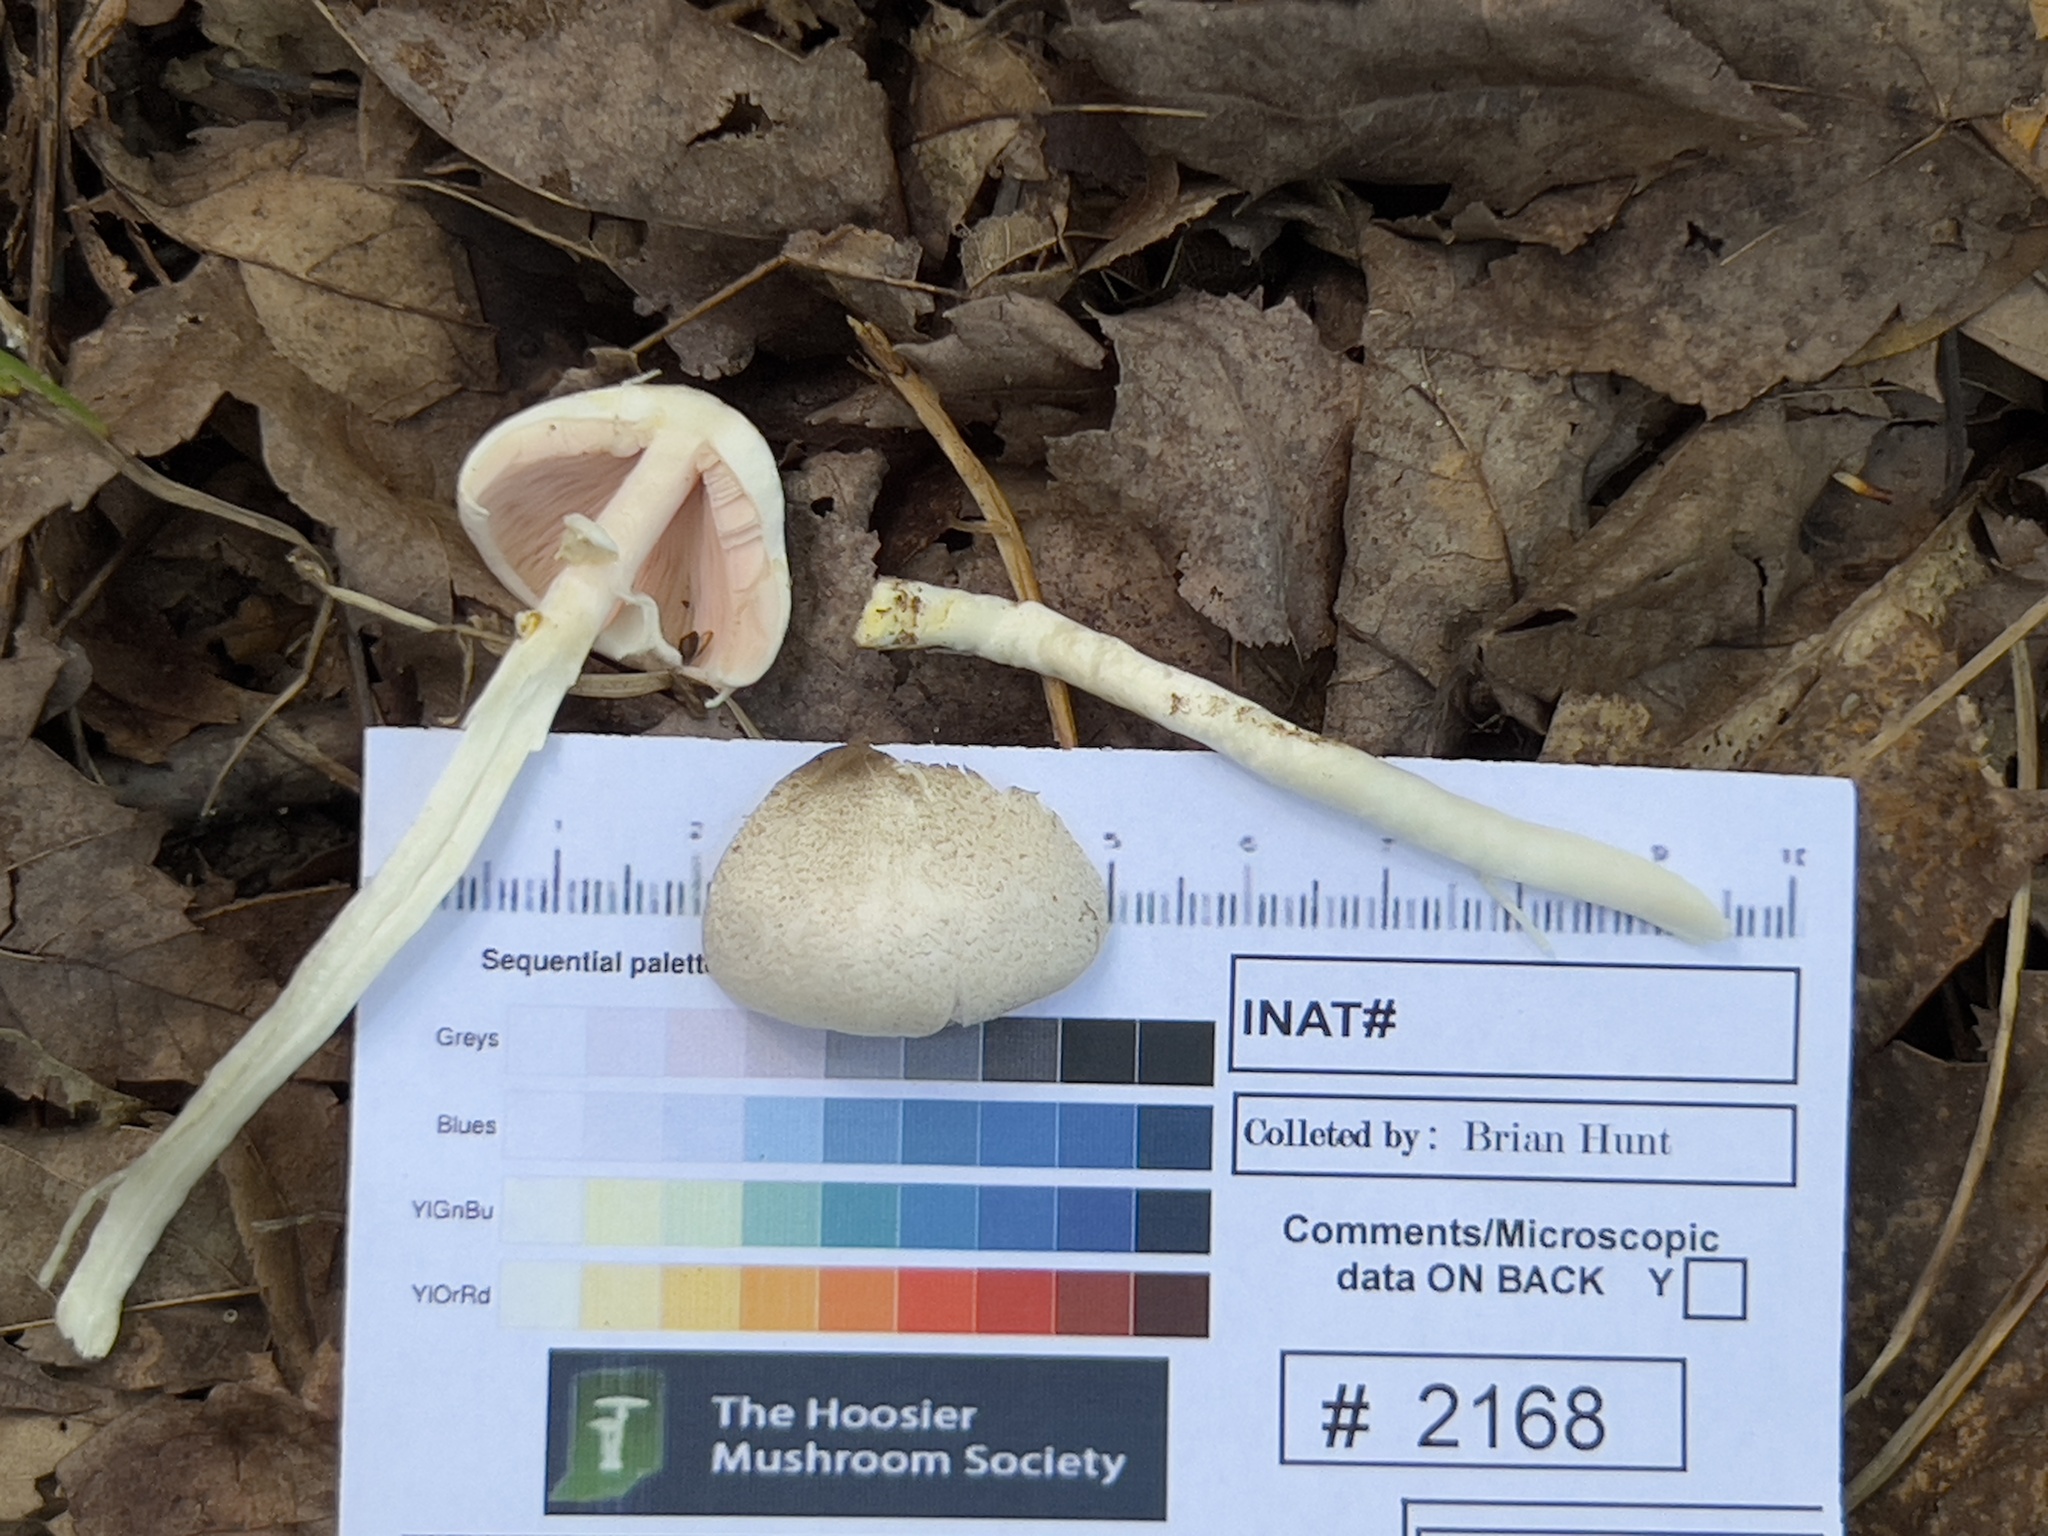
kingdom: Fungi
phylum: Basidiomycota
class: Agaricomycetes
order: Agaricales
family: Agaricaceae
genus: Agaricus
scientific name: Agaricus leptocaulis
